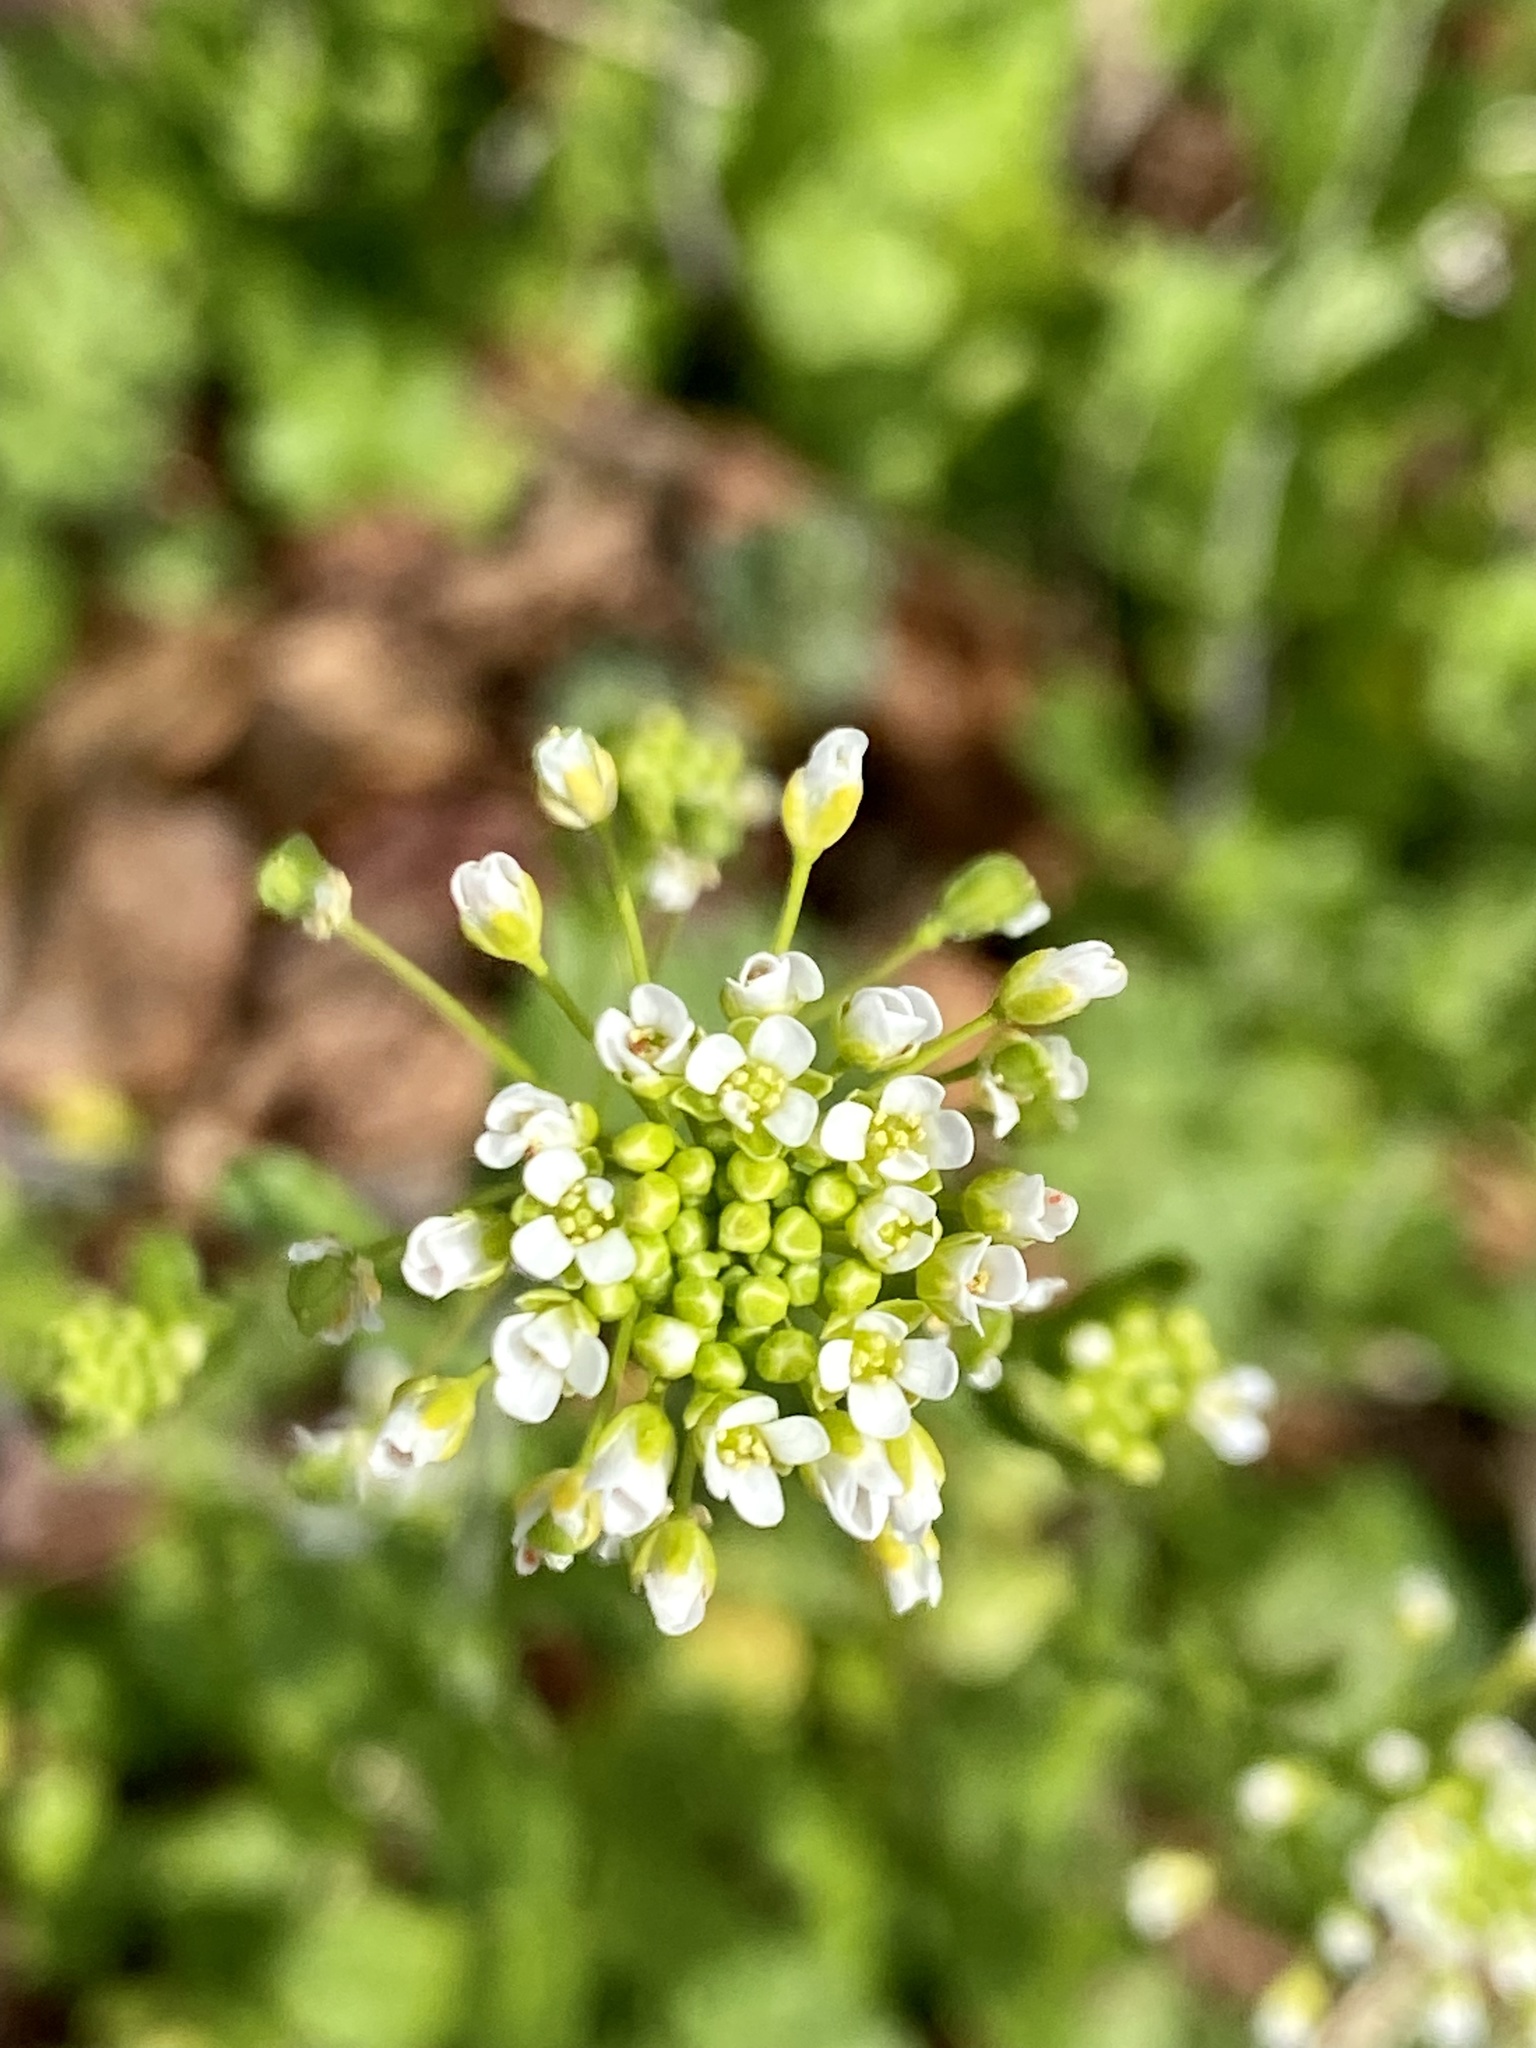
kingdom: Plantae
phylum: Tracheophyta
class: Magnoliopsida
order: Brassicales
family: Brassicaceae
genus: Mummenhoffia
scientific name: Mummenhoffia alliacea
